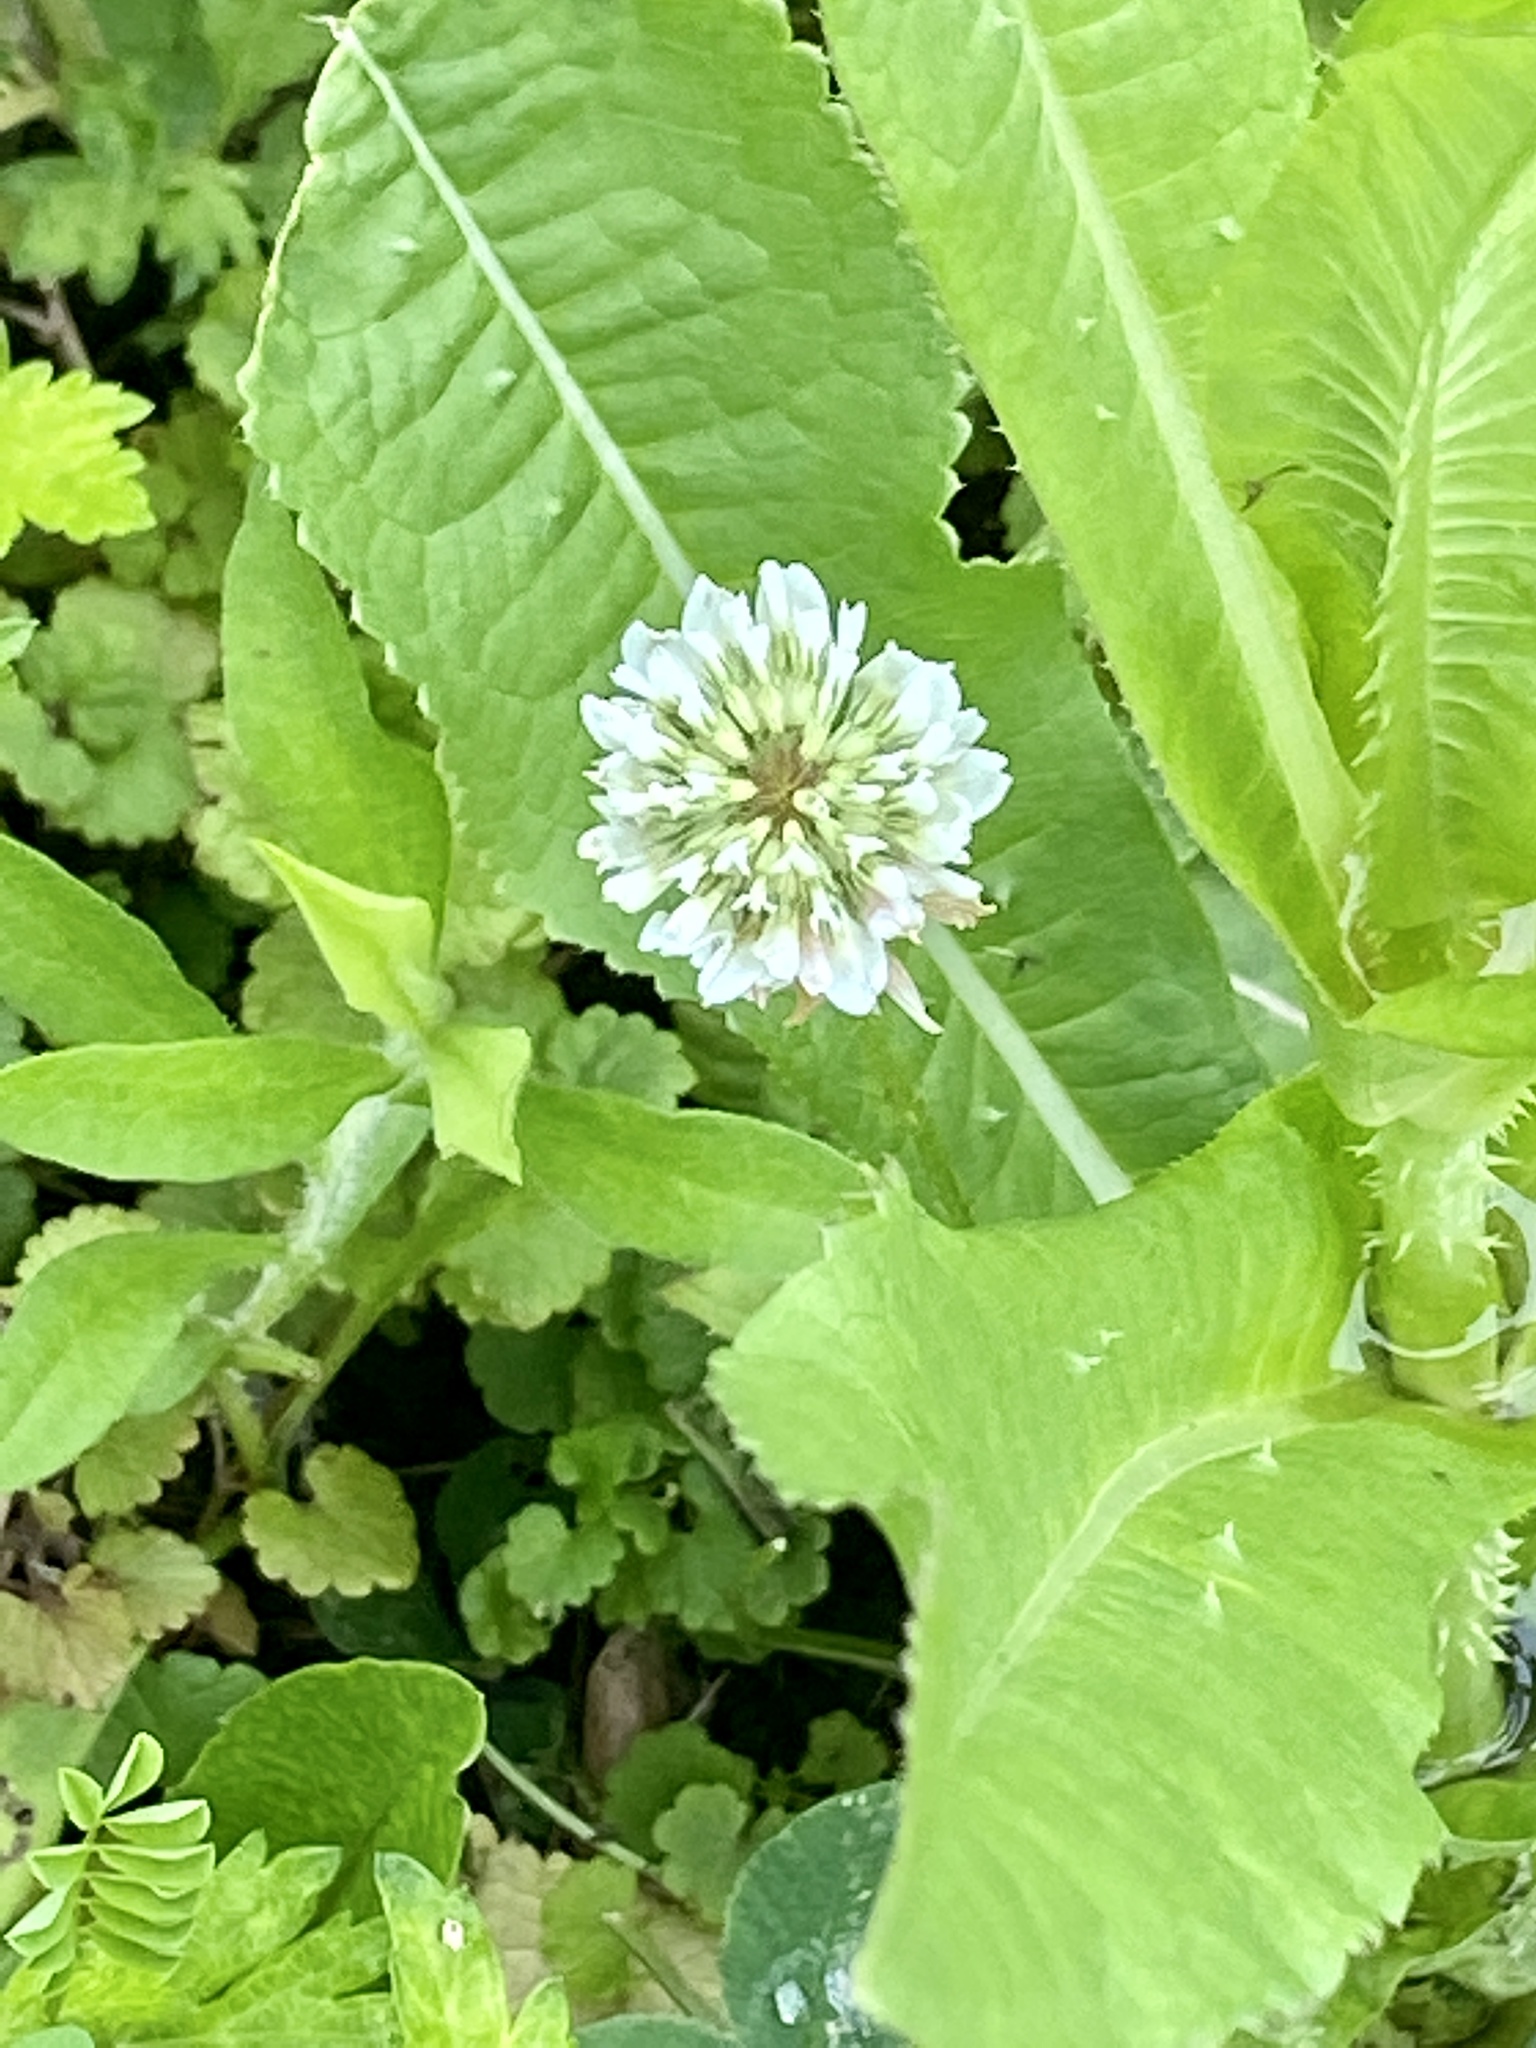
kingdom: Plantae
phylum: Tracheophyta
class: Magnoliopsida
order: Fabales
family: Fabaceae
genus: Trifolium
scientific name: Trifolium repens
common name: White clover
